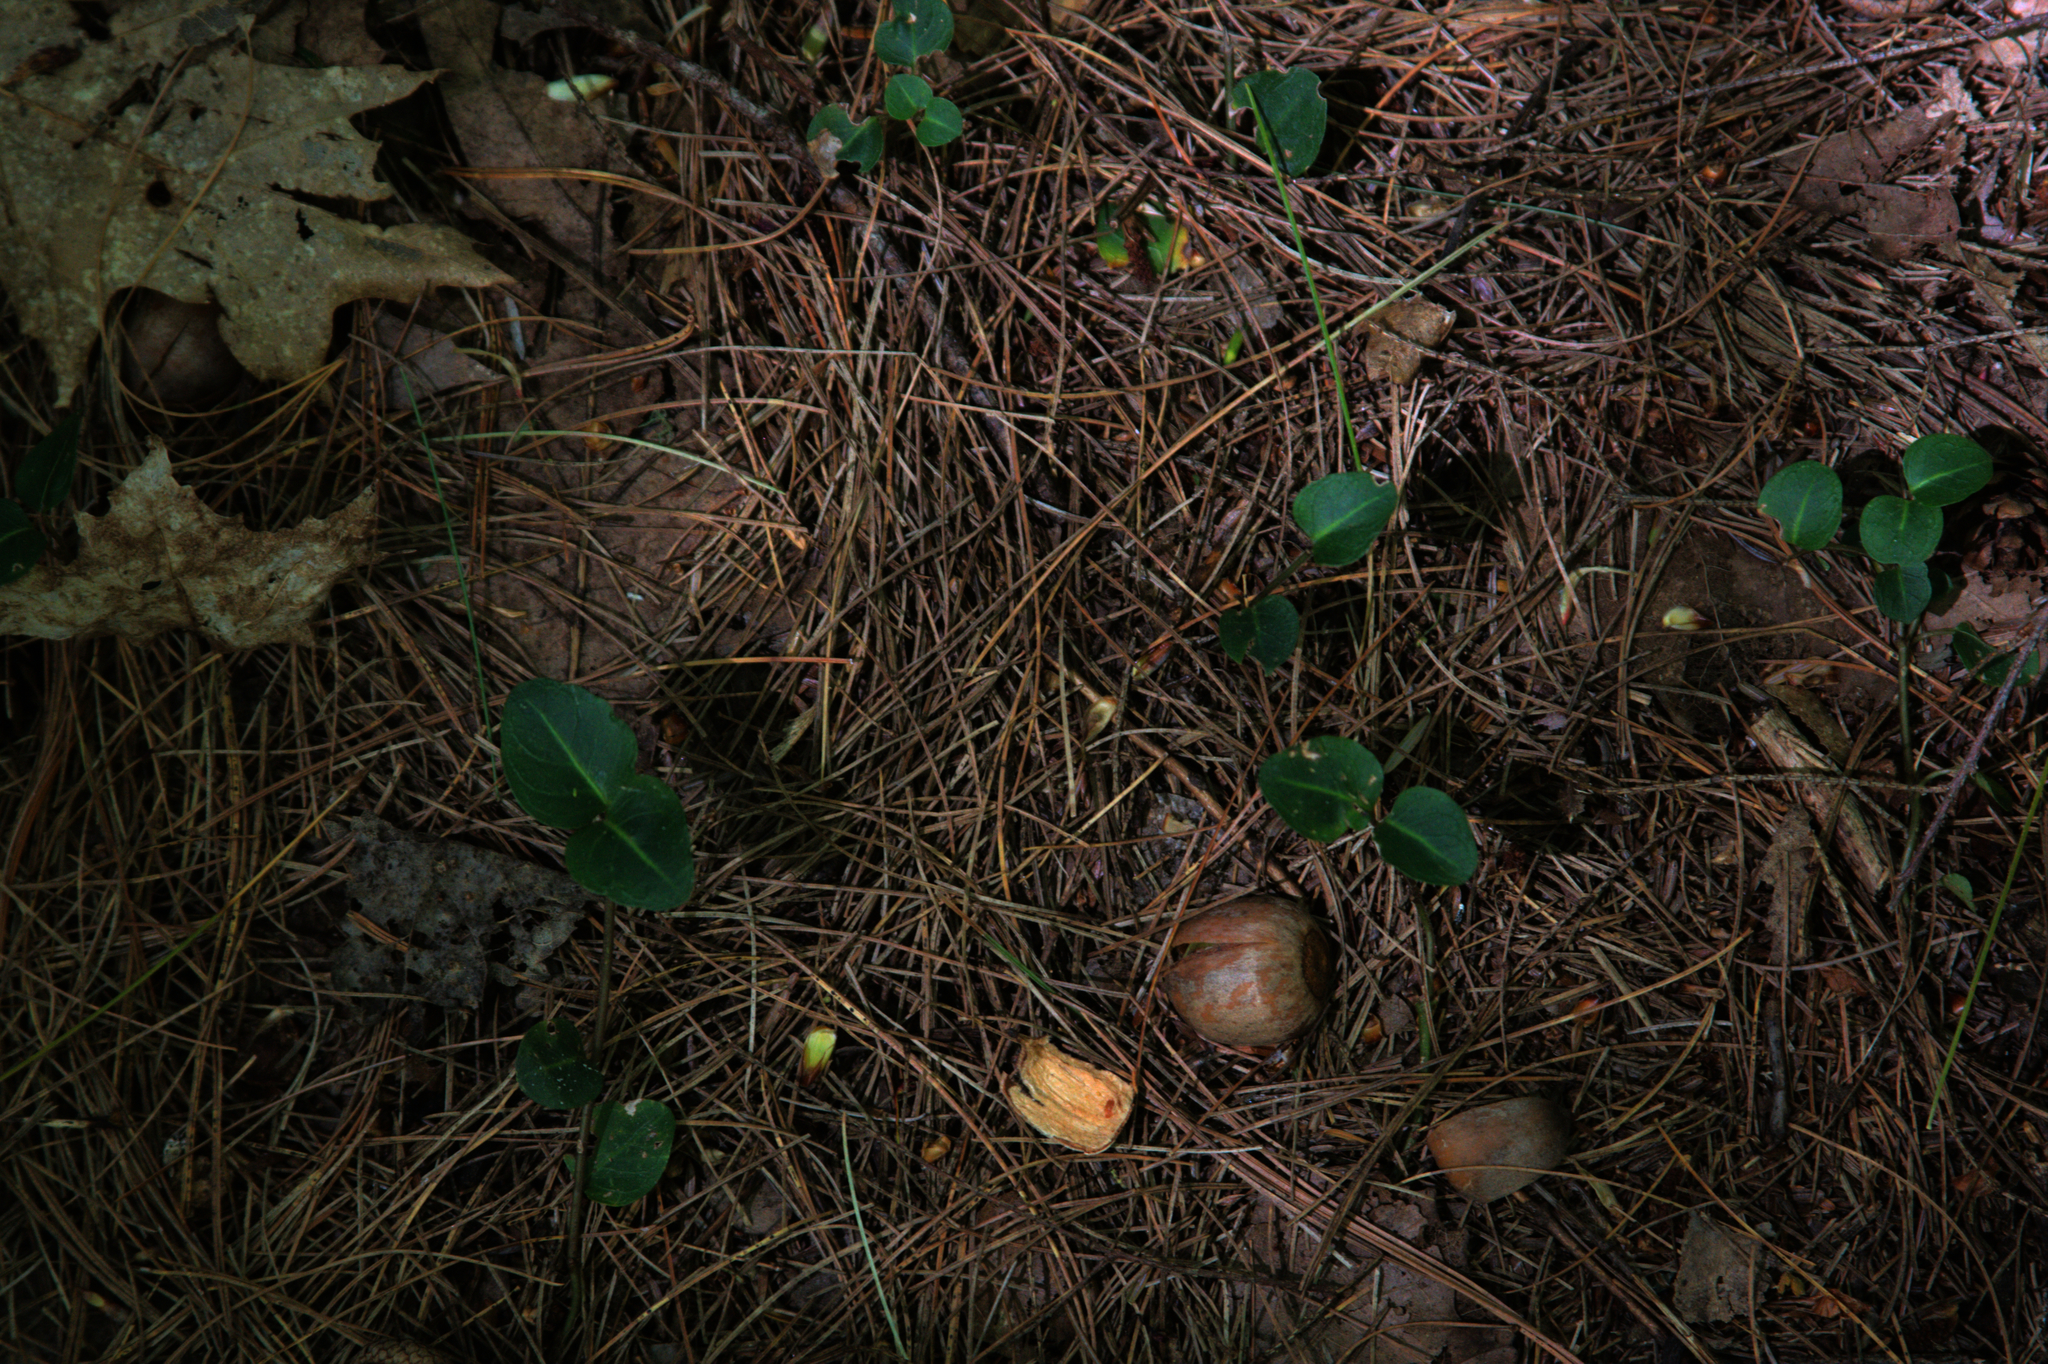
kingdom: Plantae
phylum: Tracheophyta
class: Magnoliopsida
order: Gentianales
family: Rubiaceae
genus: Mitchella
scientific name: Mitchella repens
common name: Partridge-berry
